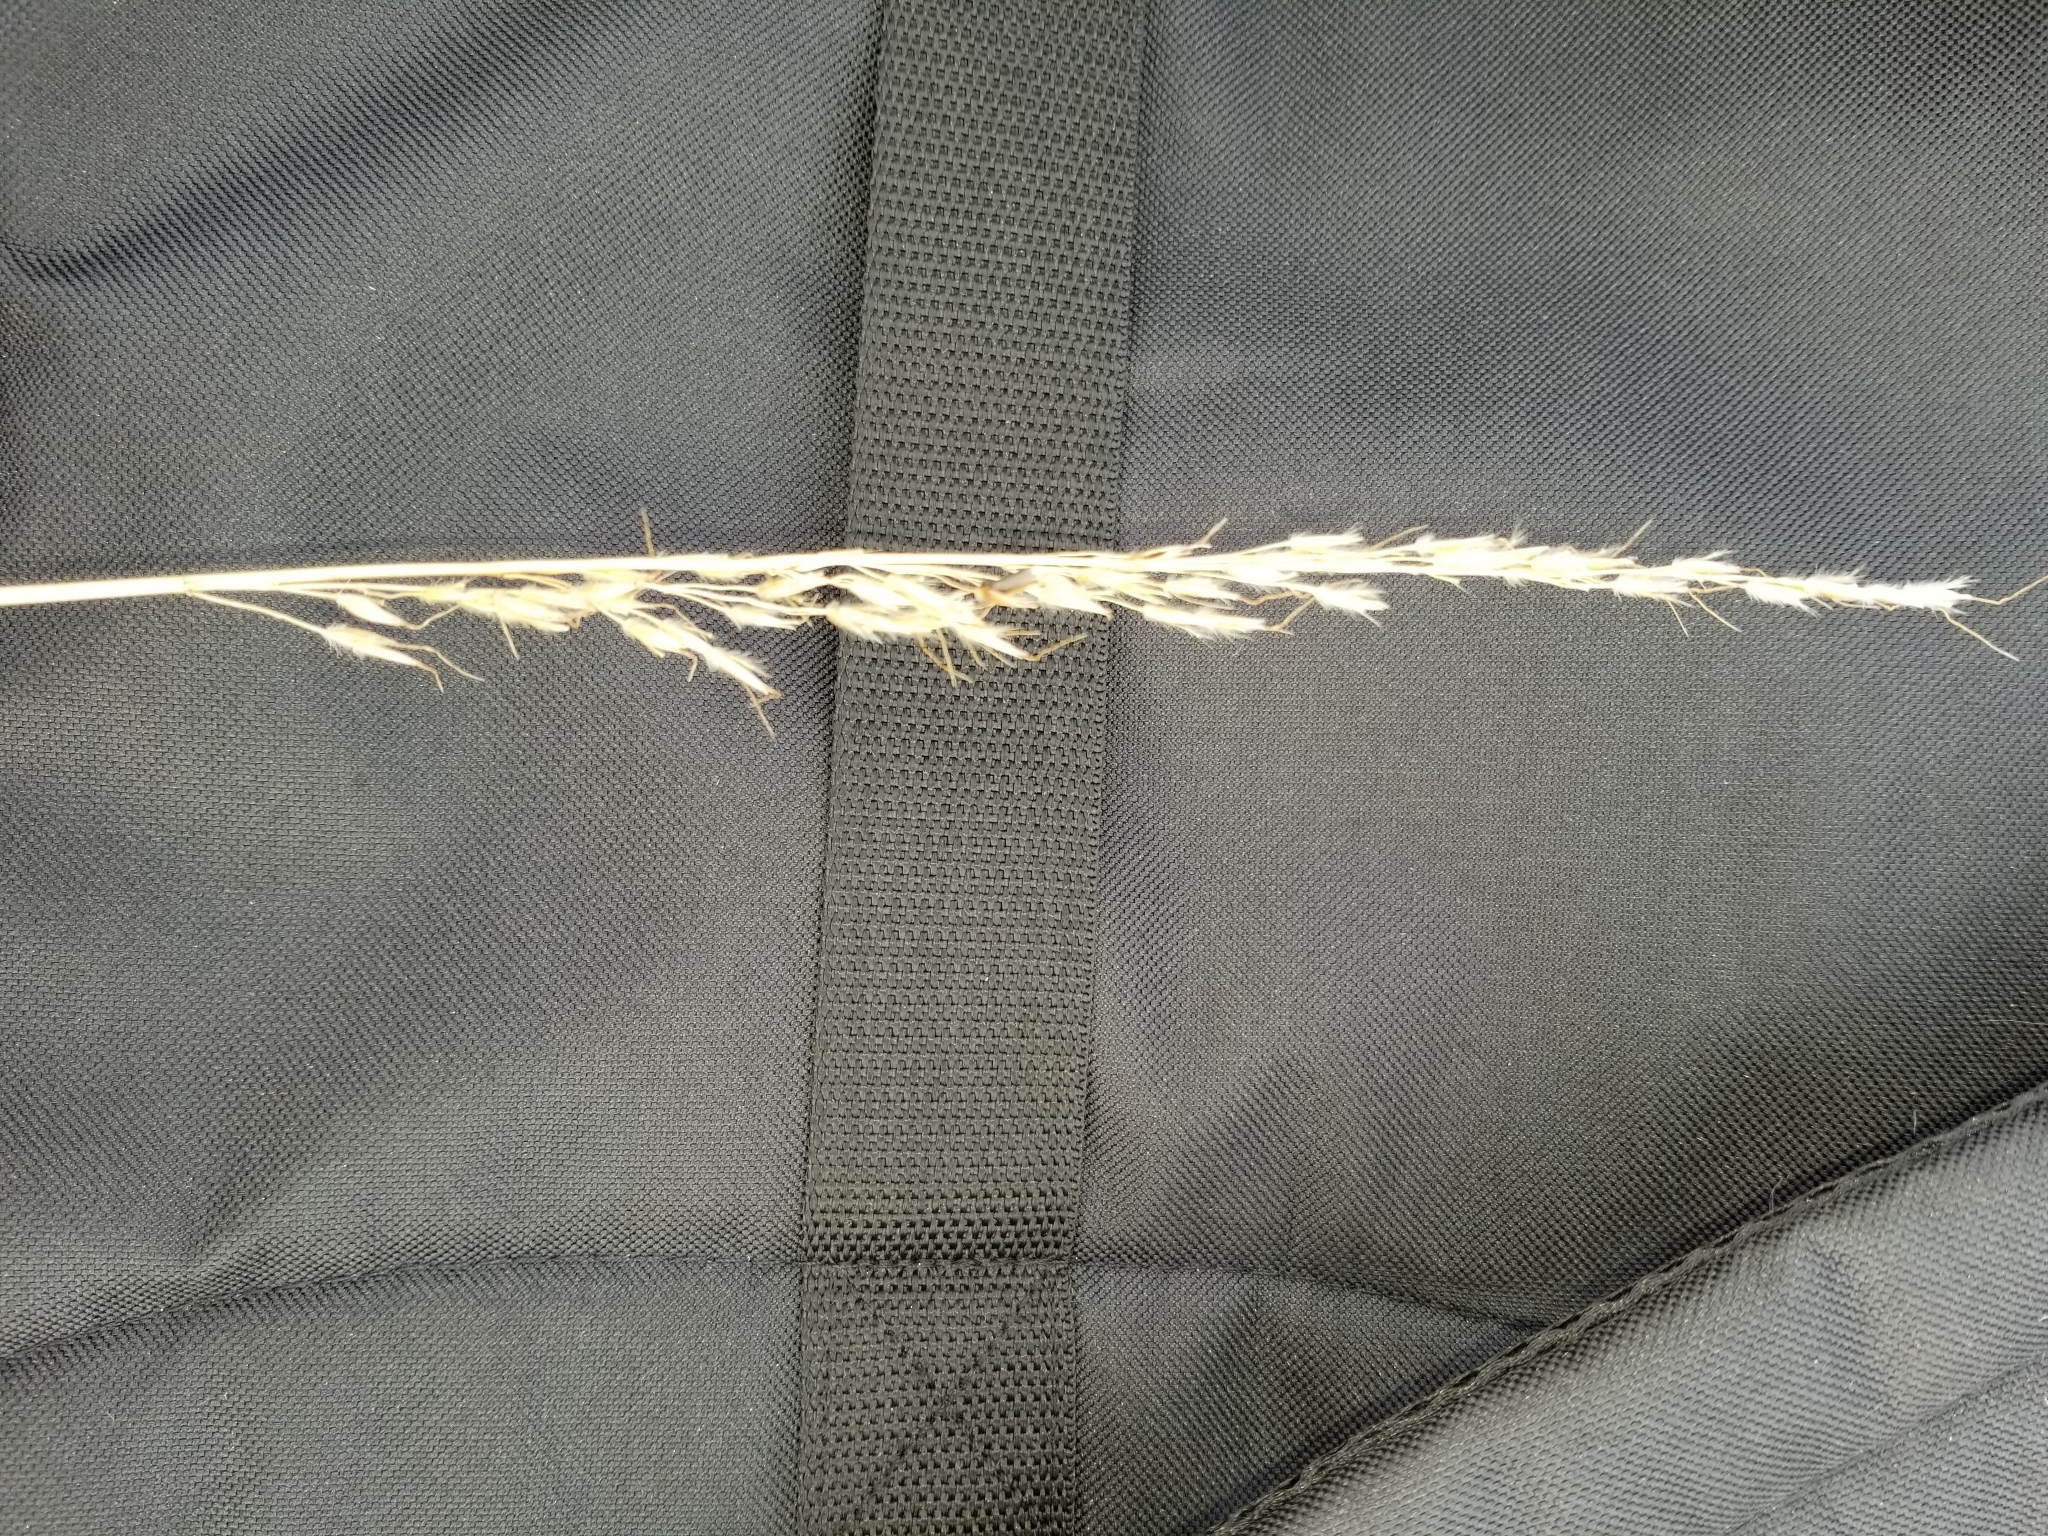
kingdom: Plantae
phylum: Tracheophyta
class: Liliopsida
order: Poales
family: Poaceae
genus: Sorghastrum
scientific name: Sorghastrum nutans
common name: Indian grass
